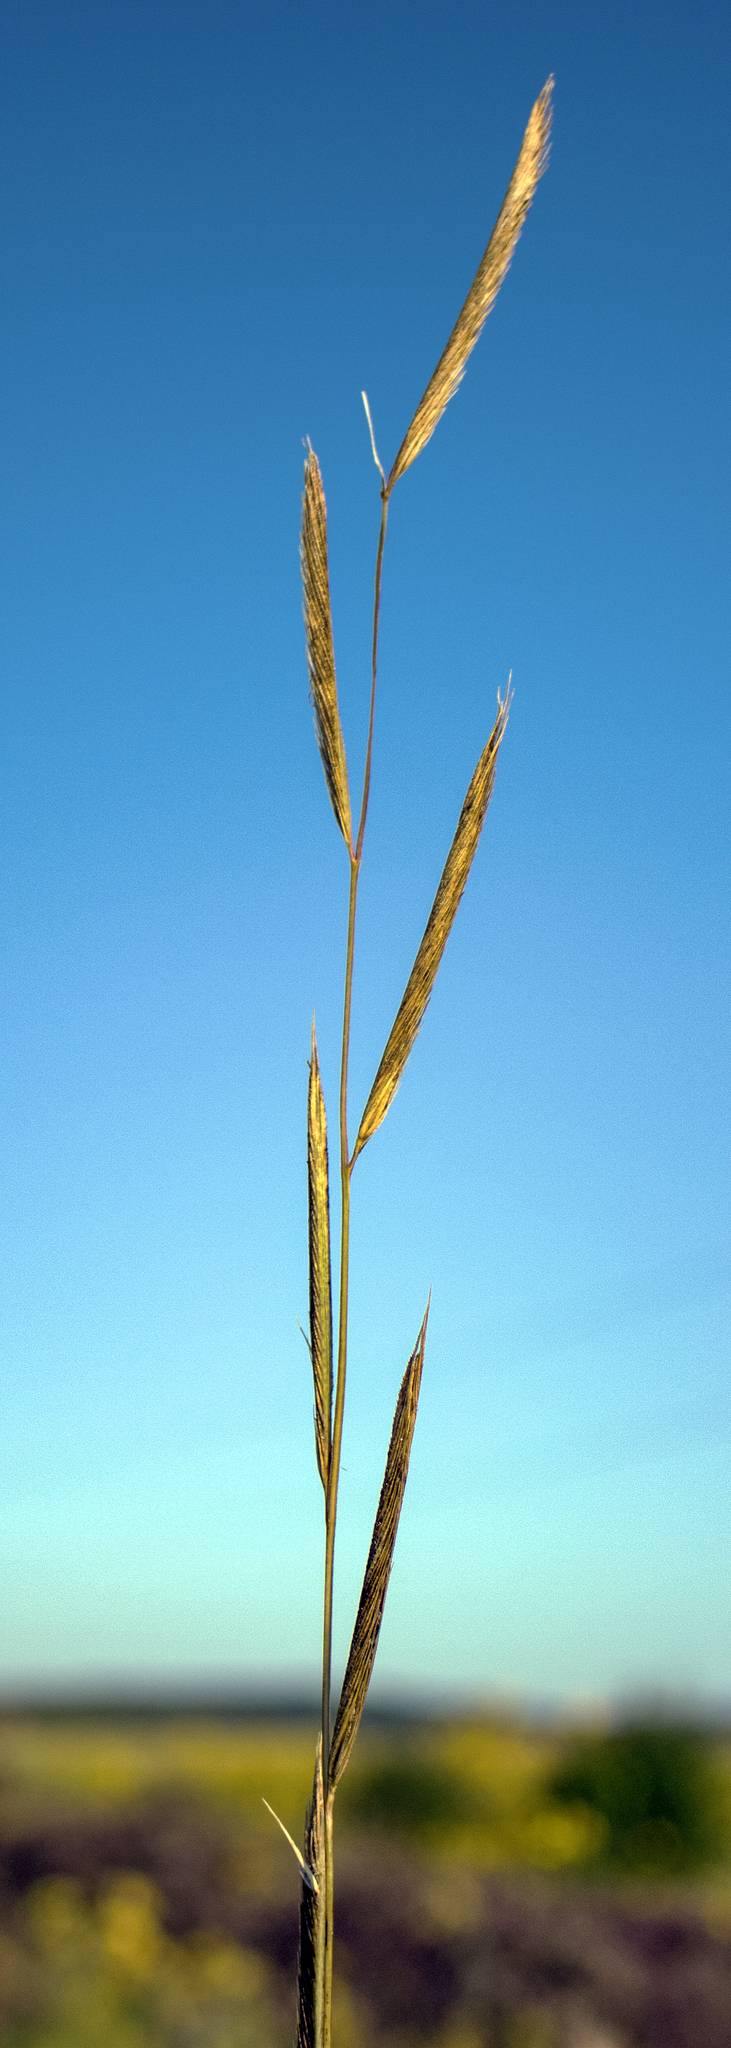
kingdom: Plantae
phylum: Tracheophyta
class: Liliopsida
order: Poales
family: Poaceae
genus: Sporobolus
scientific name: Sporobolus michauxianus
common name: Freshwater cordgrass
